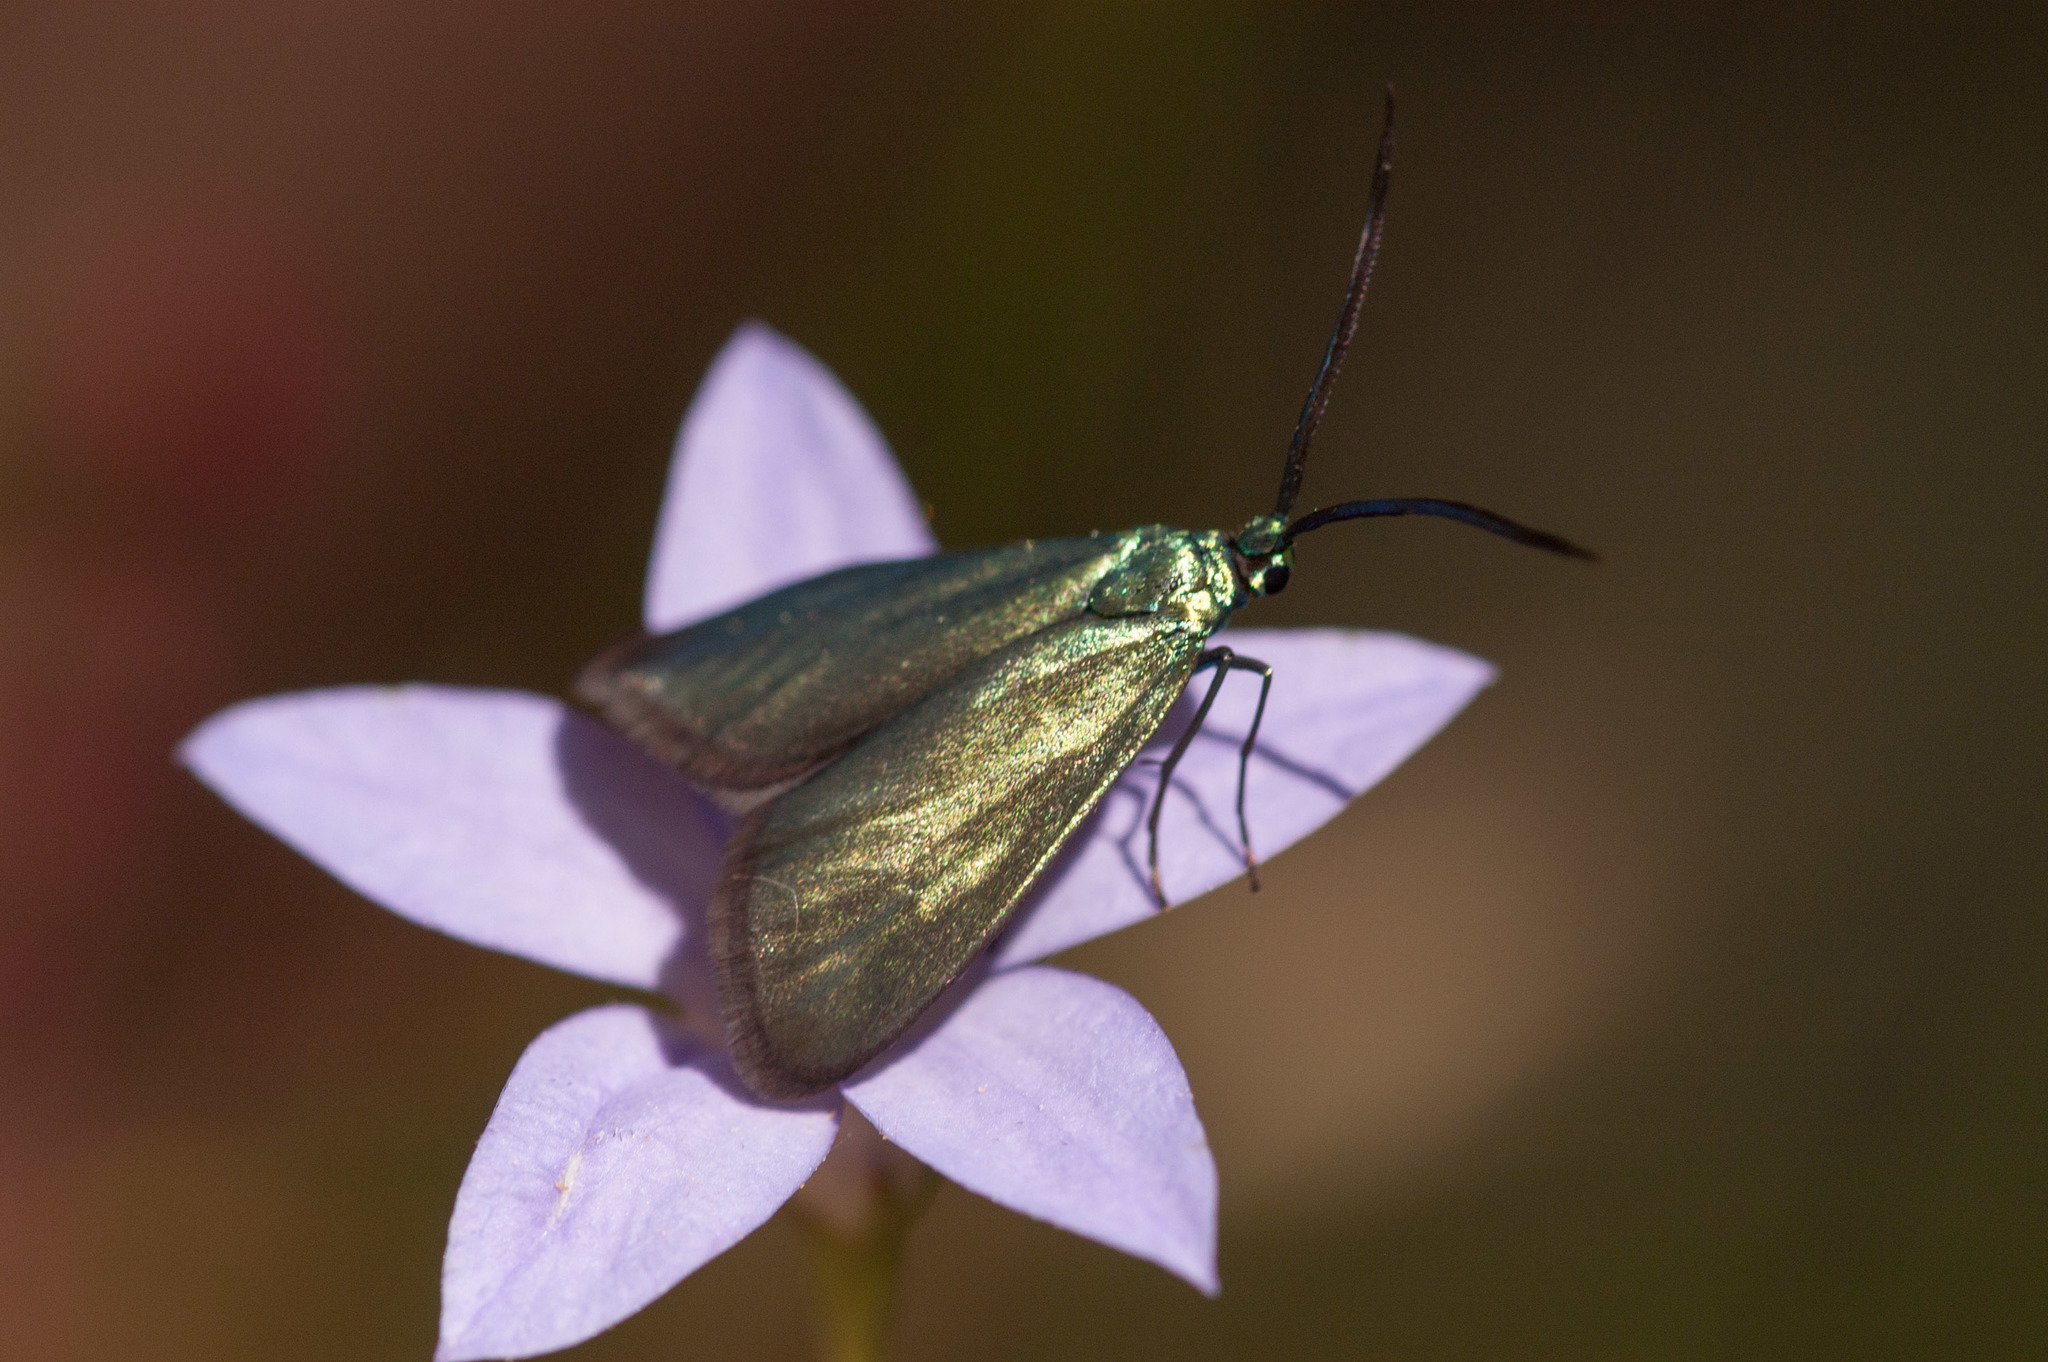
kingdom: Animalia
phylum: Arthropoda
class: Insecta
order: Lepidoptera
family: Zygaenidae
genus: Pollanisus
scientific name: Pollanisus
